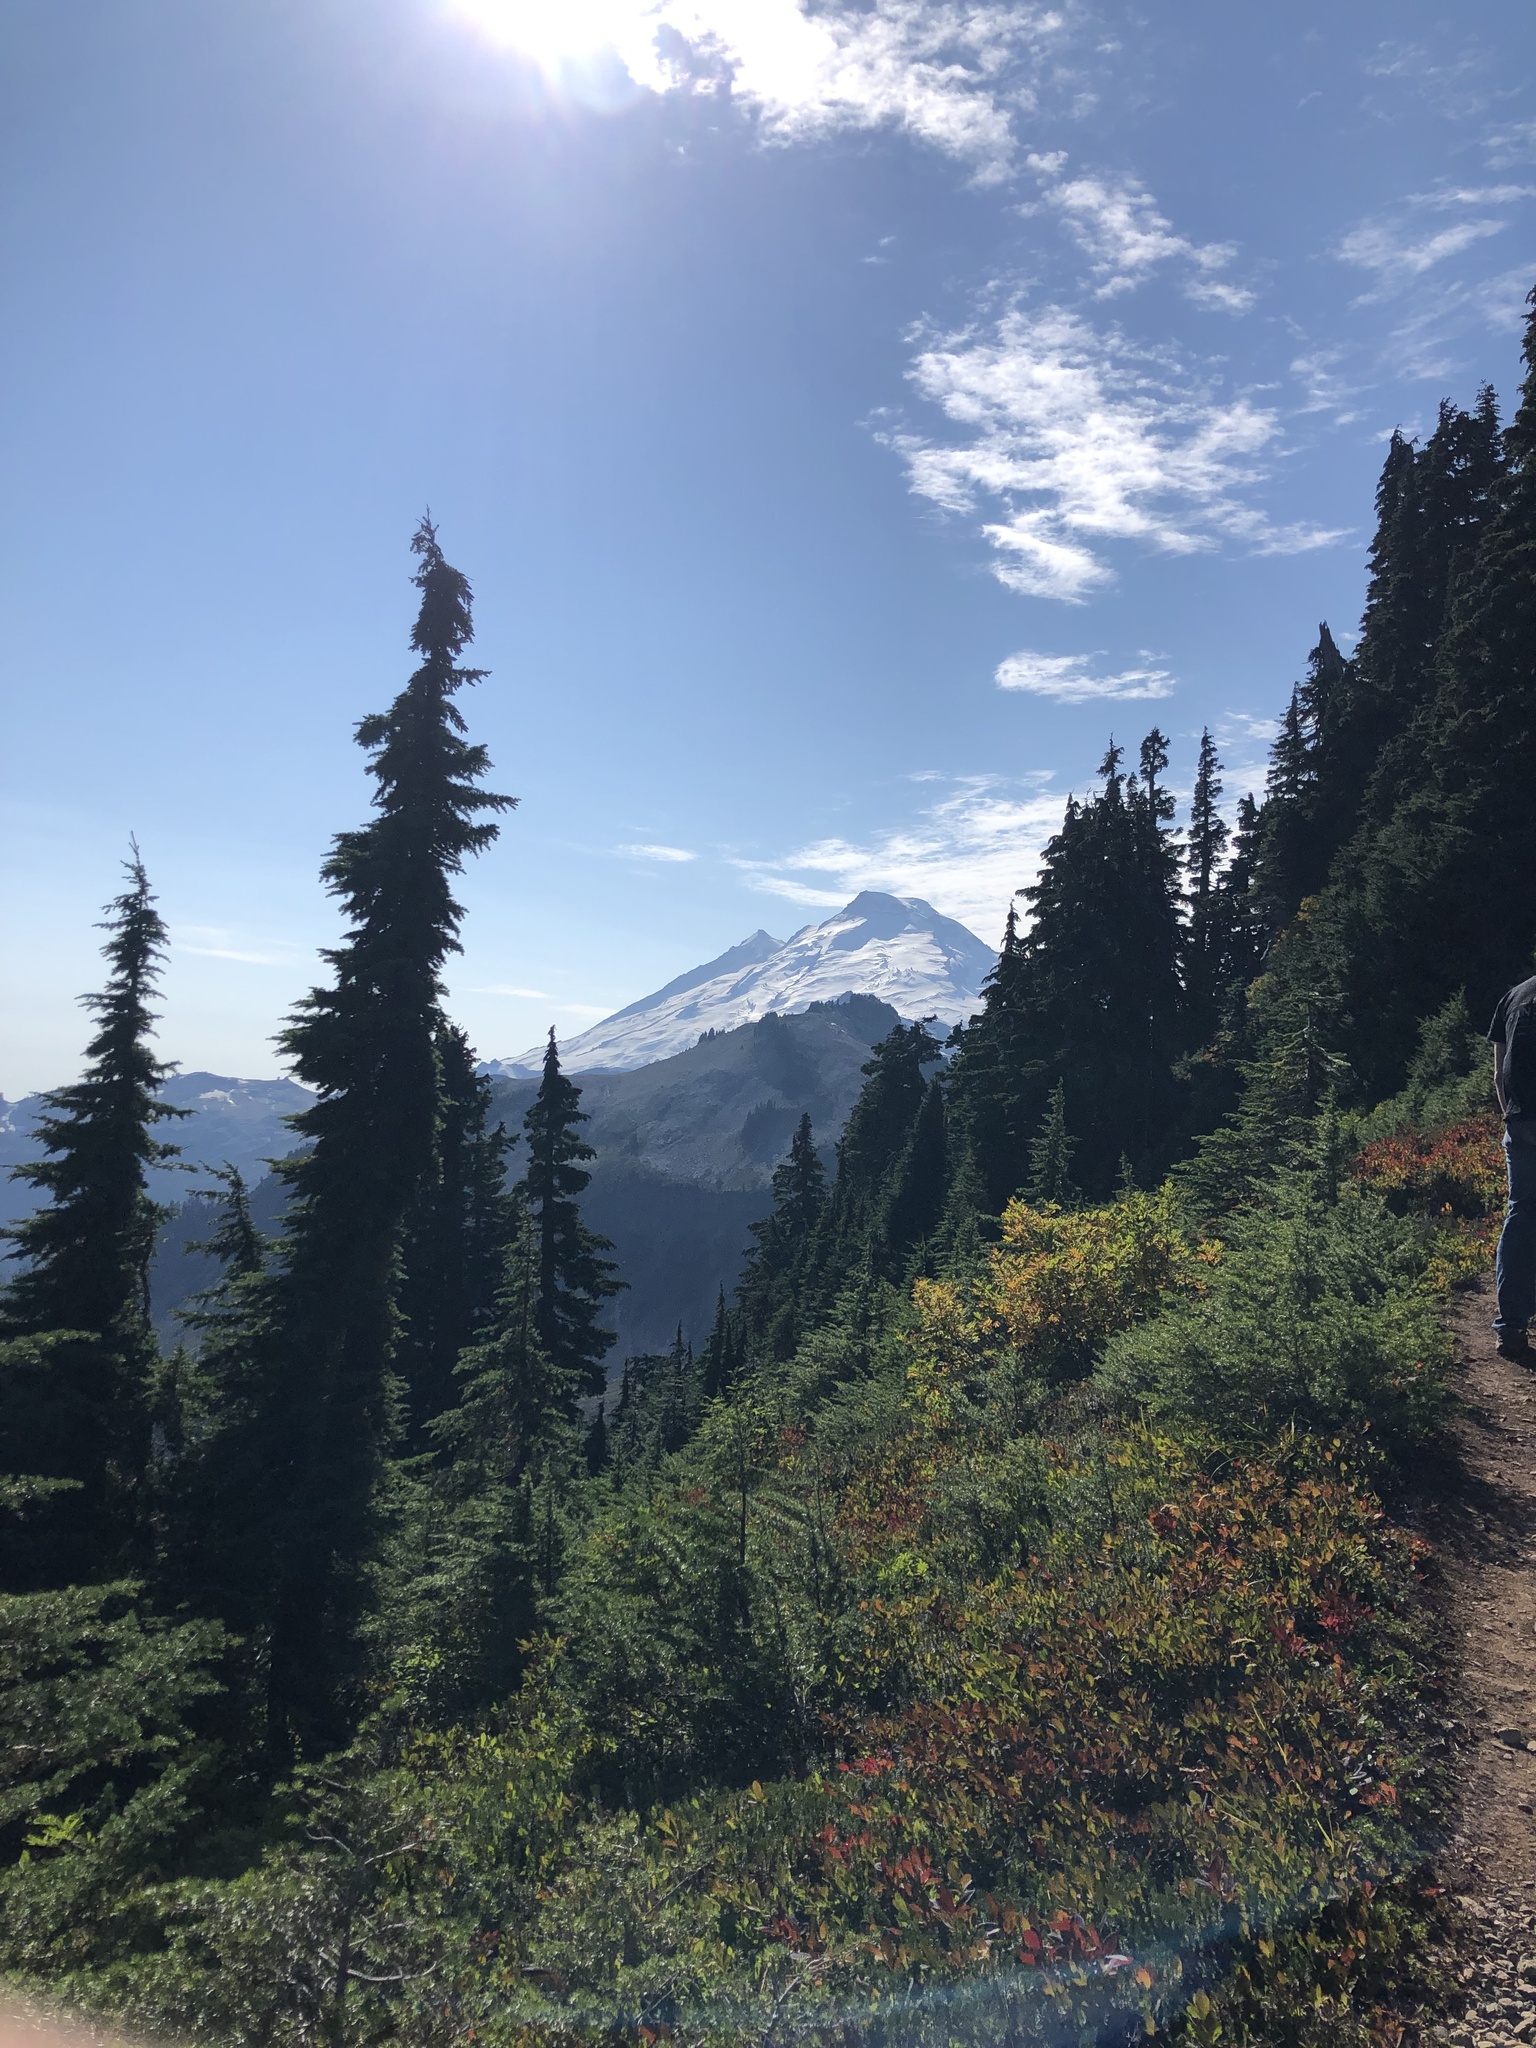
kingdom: Plantae
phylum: Tracheophyta
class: Pinopsida
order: Pinales
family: Pinaceae
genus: Tsuga
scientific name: Tsuga mertensiana
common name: Mountain hemlock
